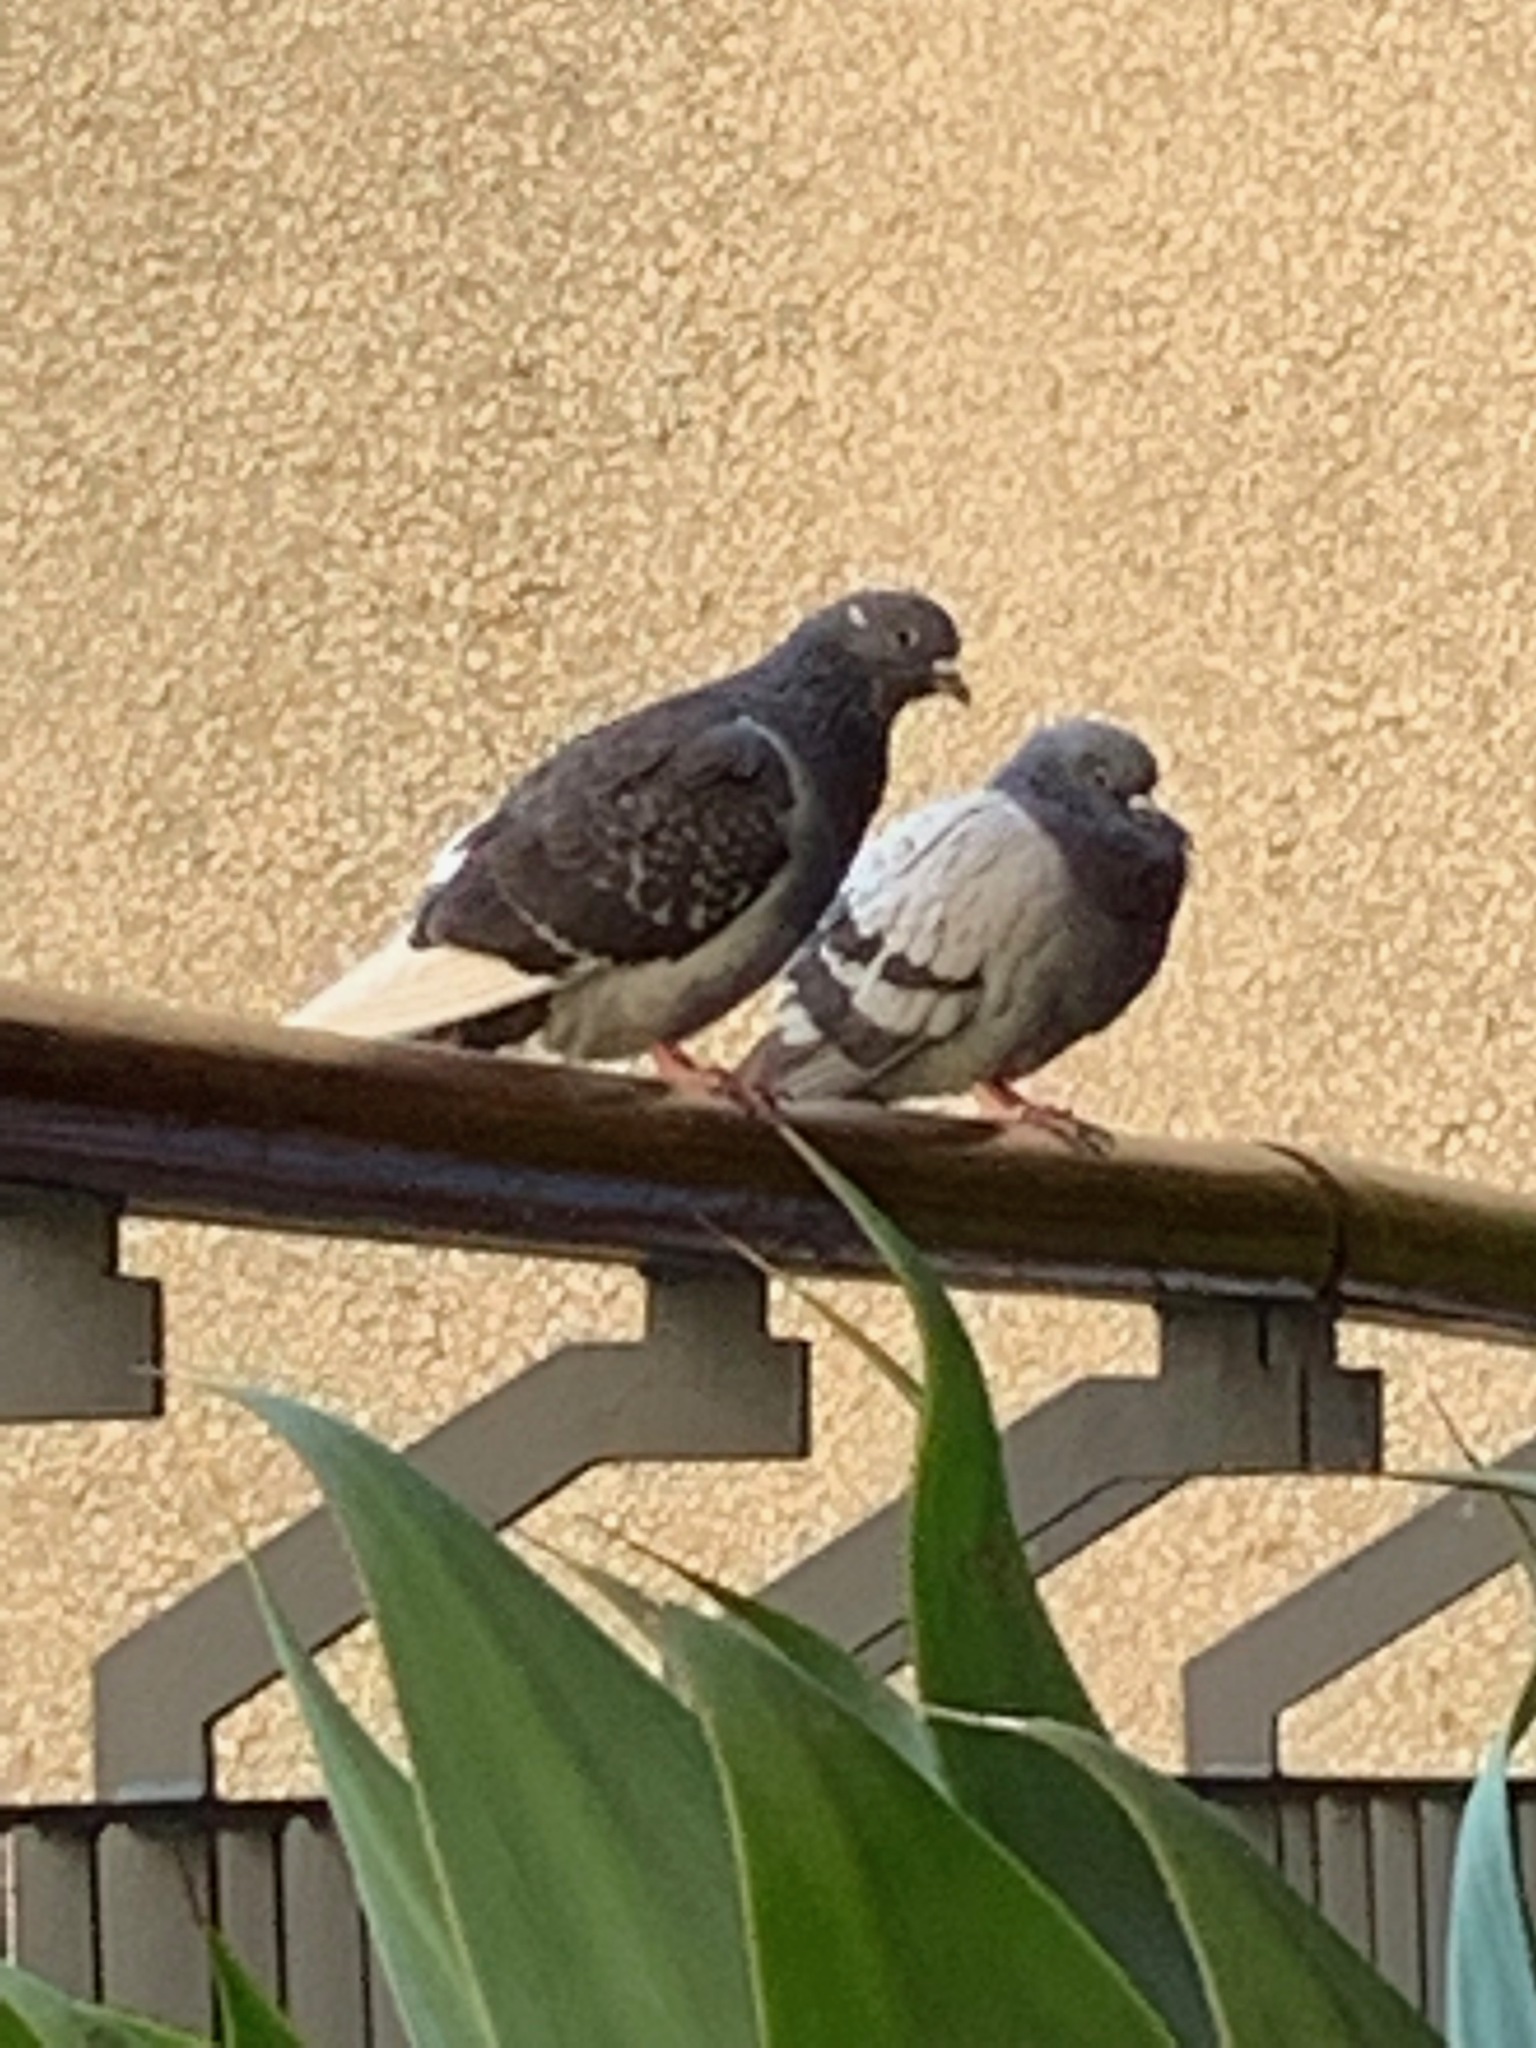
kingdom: Animalia
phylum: Chordata
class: Aves
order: Columbiformes
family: Columbidae
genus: Columba
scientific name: Columba livia
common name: Rock pigeon
